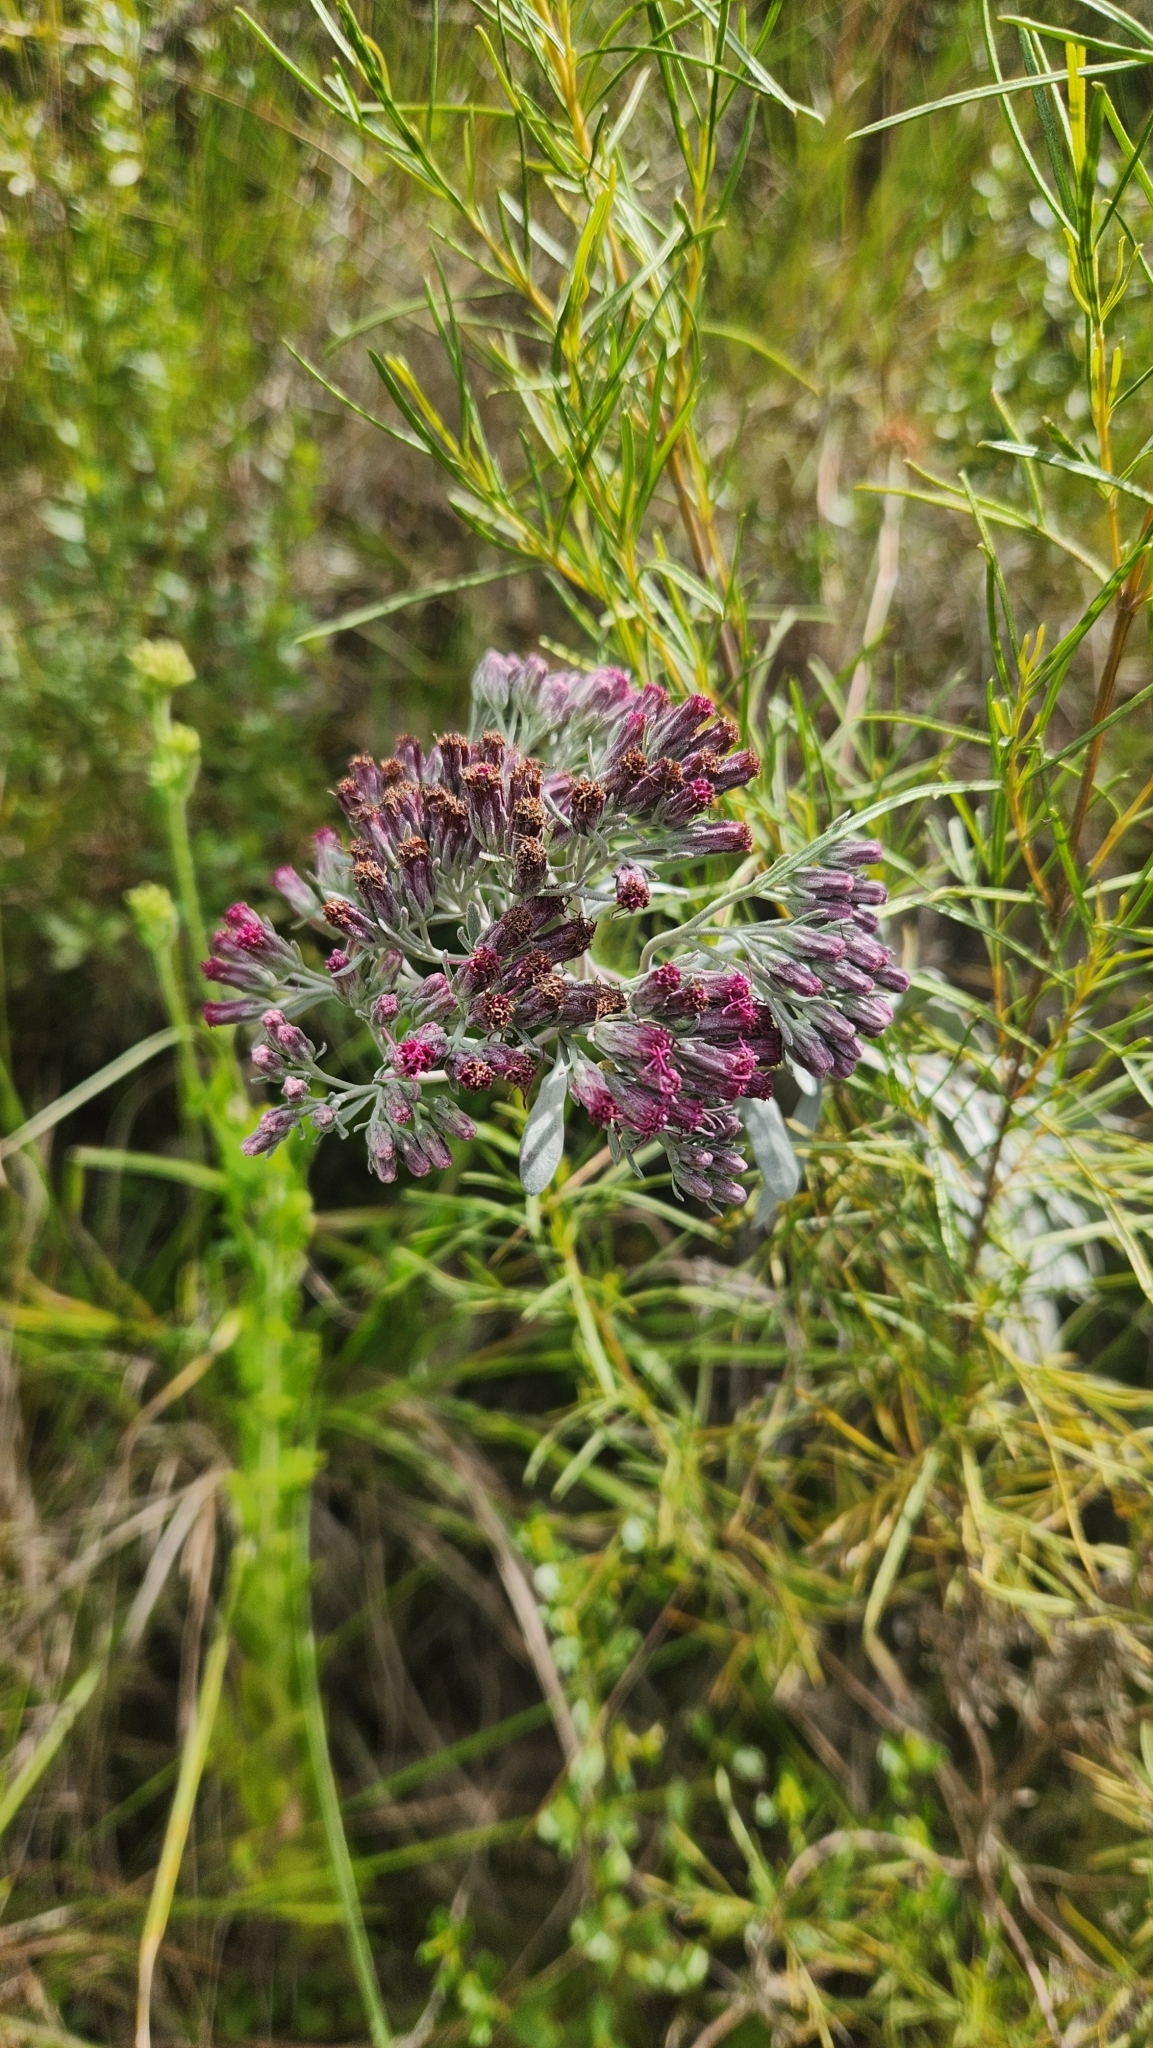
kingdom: Plantae
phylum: Tracheophyta
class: Magnoliopsida
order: Asterales
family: Asteraceae
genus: Disynaphia
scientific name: Disynaphia spathulata
